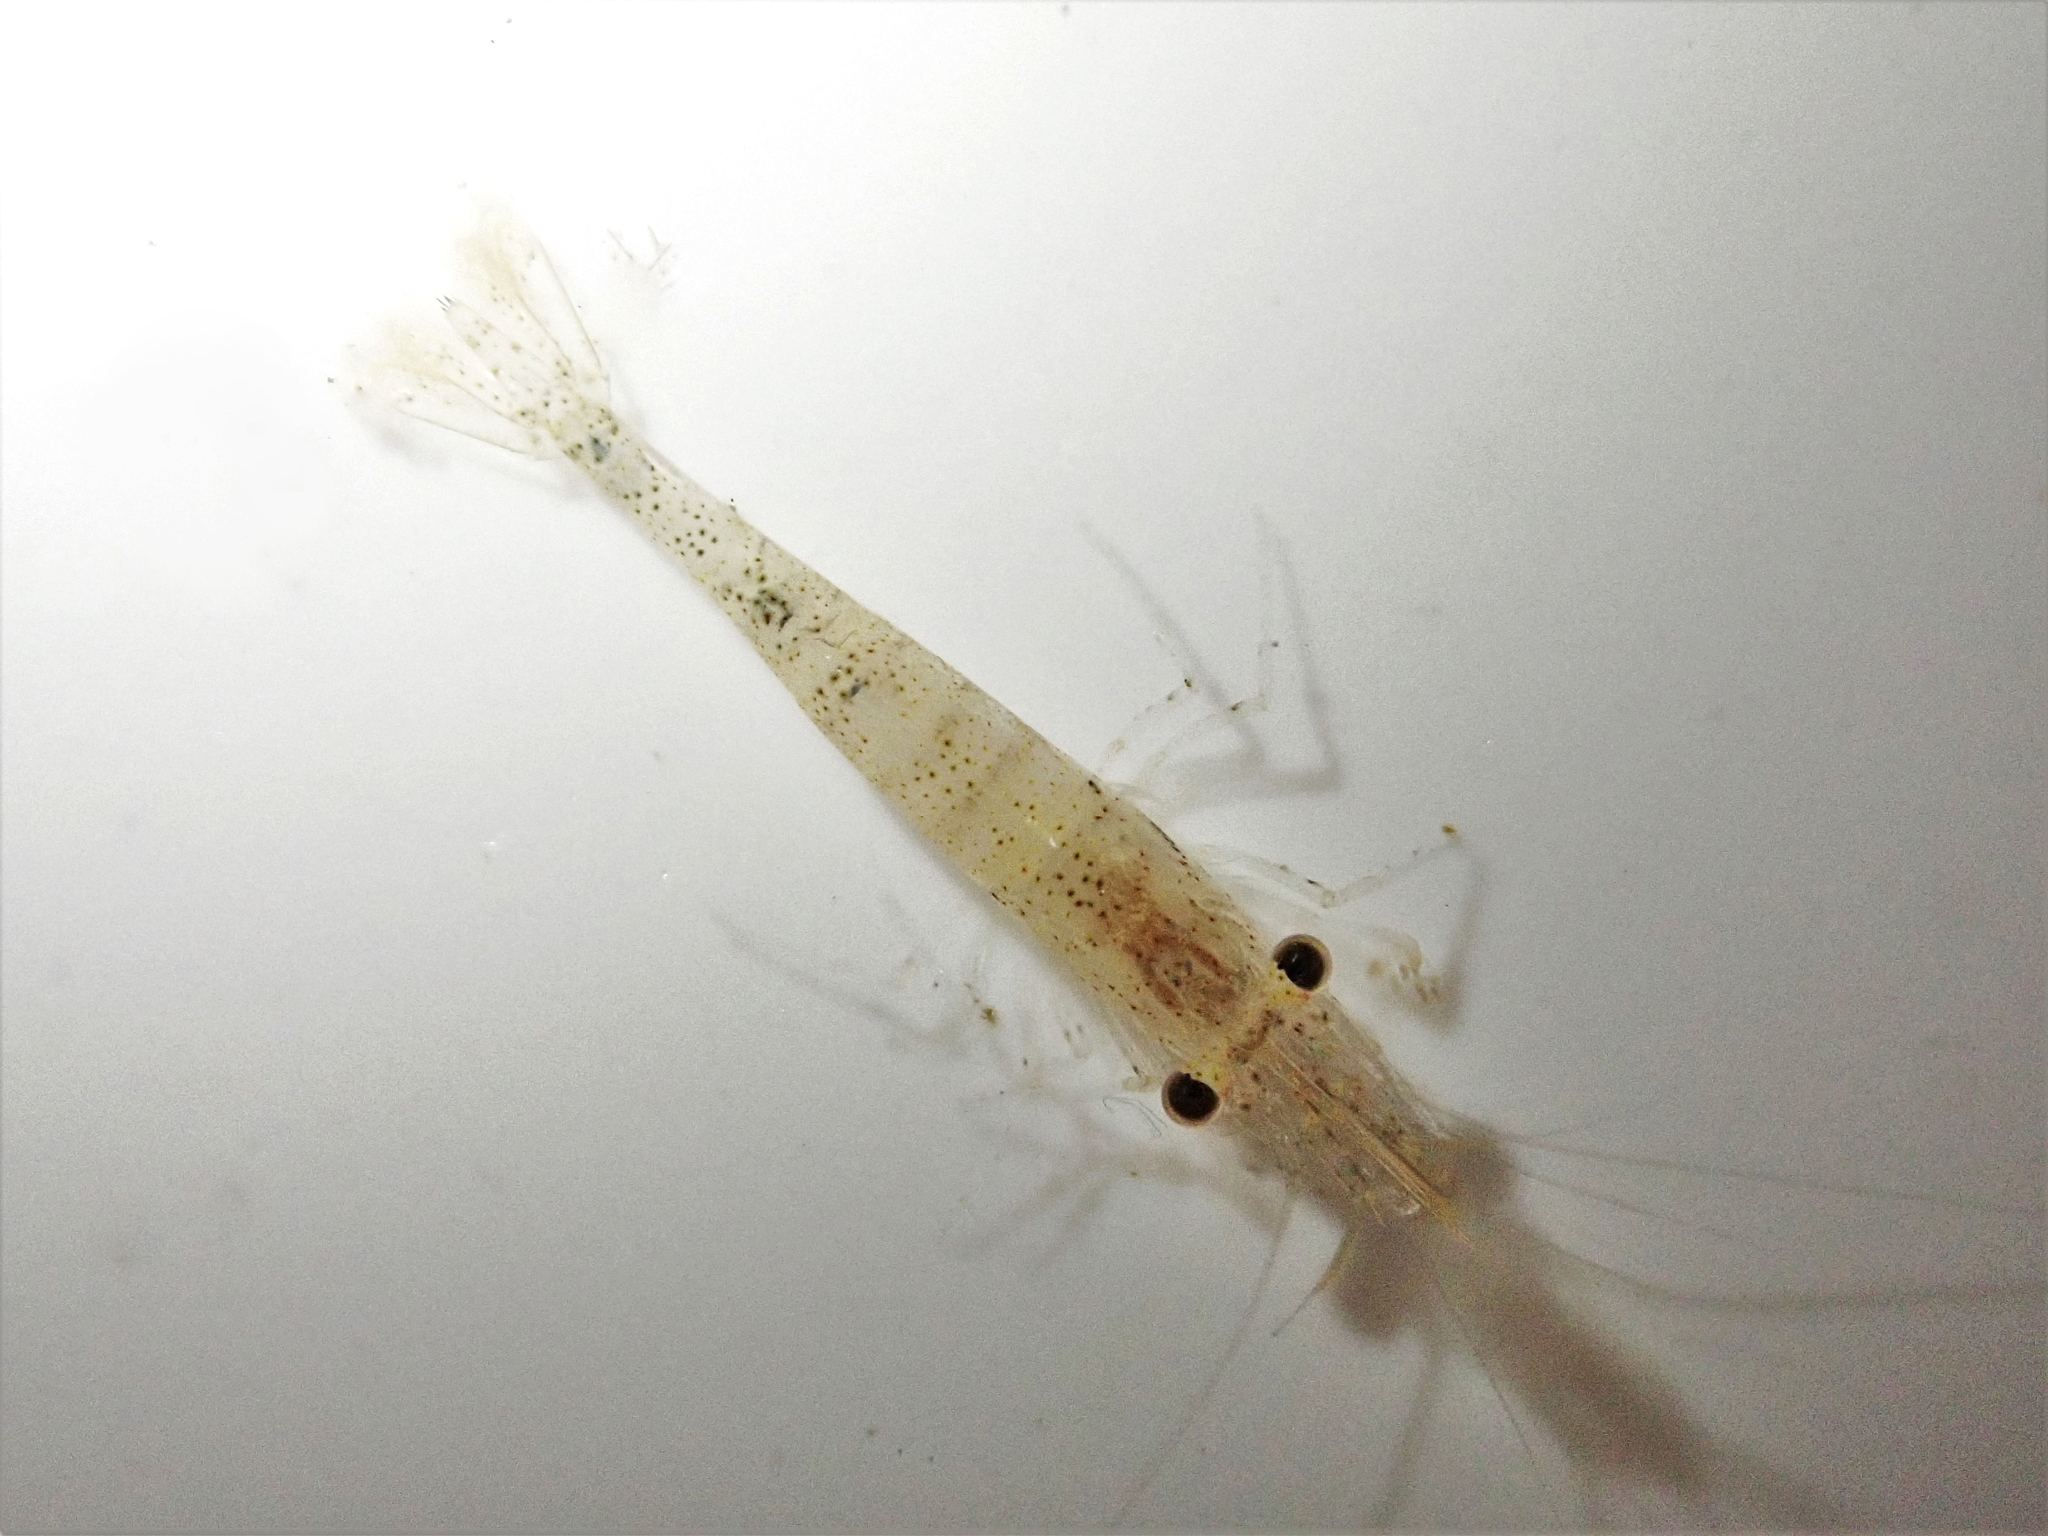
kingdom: Animalia
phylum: Arthropoda
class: Malacostraca
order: Decapoda
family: Atyidae
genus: Paratya
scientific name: Paratya curvirostris
